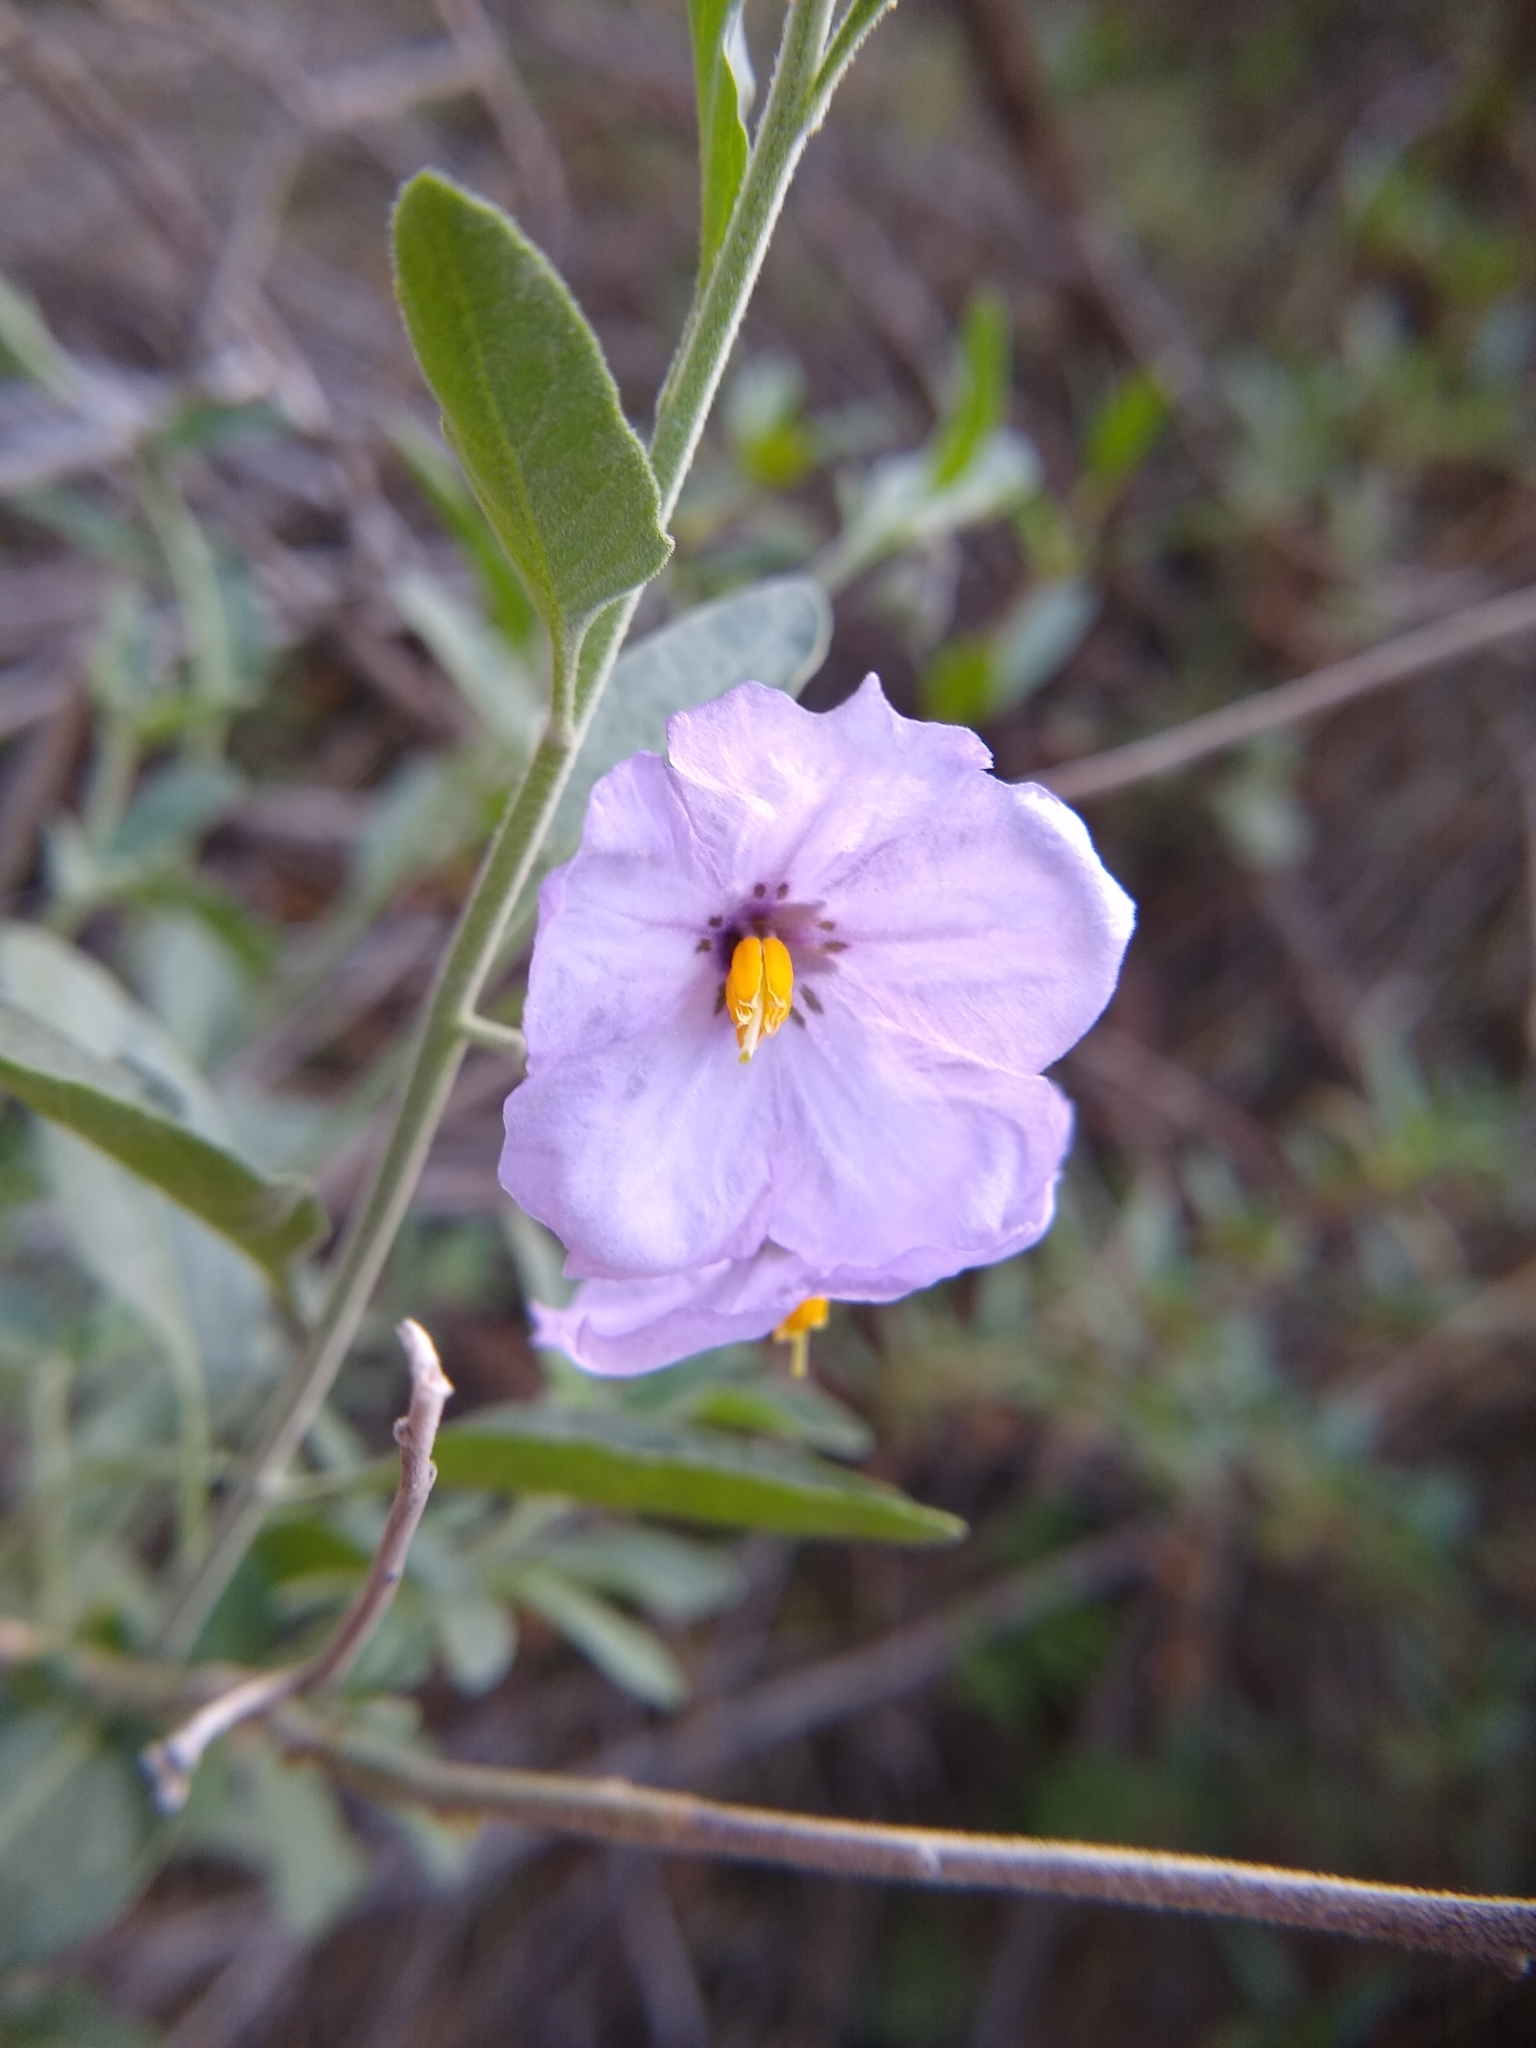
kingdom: Plantae
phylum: Tracheophyta
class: Magnoliopsida
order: Solanales
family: Solanaceae
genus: Solanum
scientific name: Solanum umbelliferum
